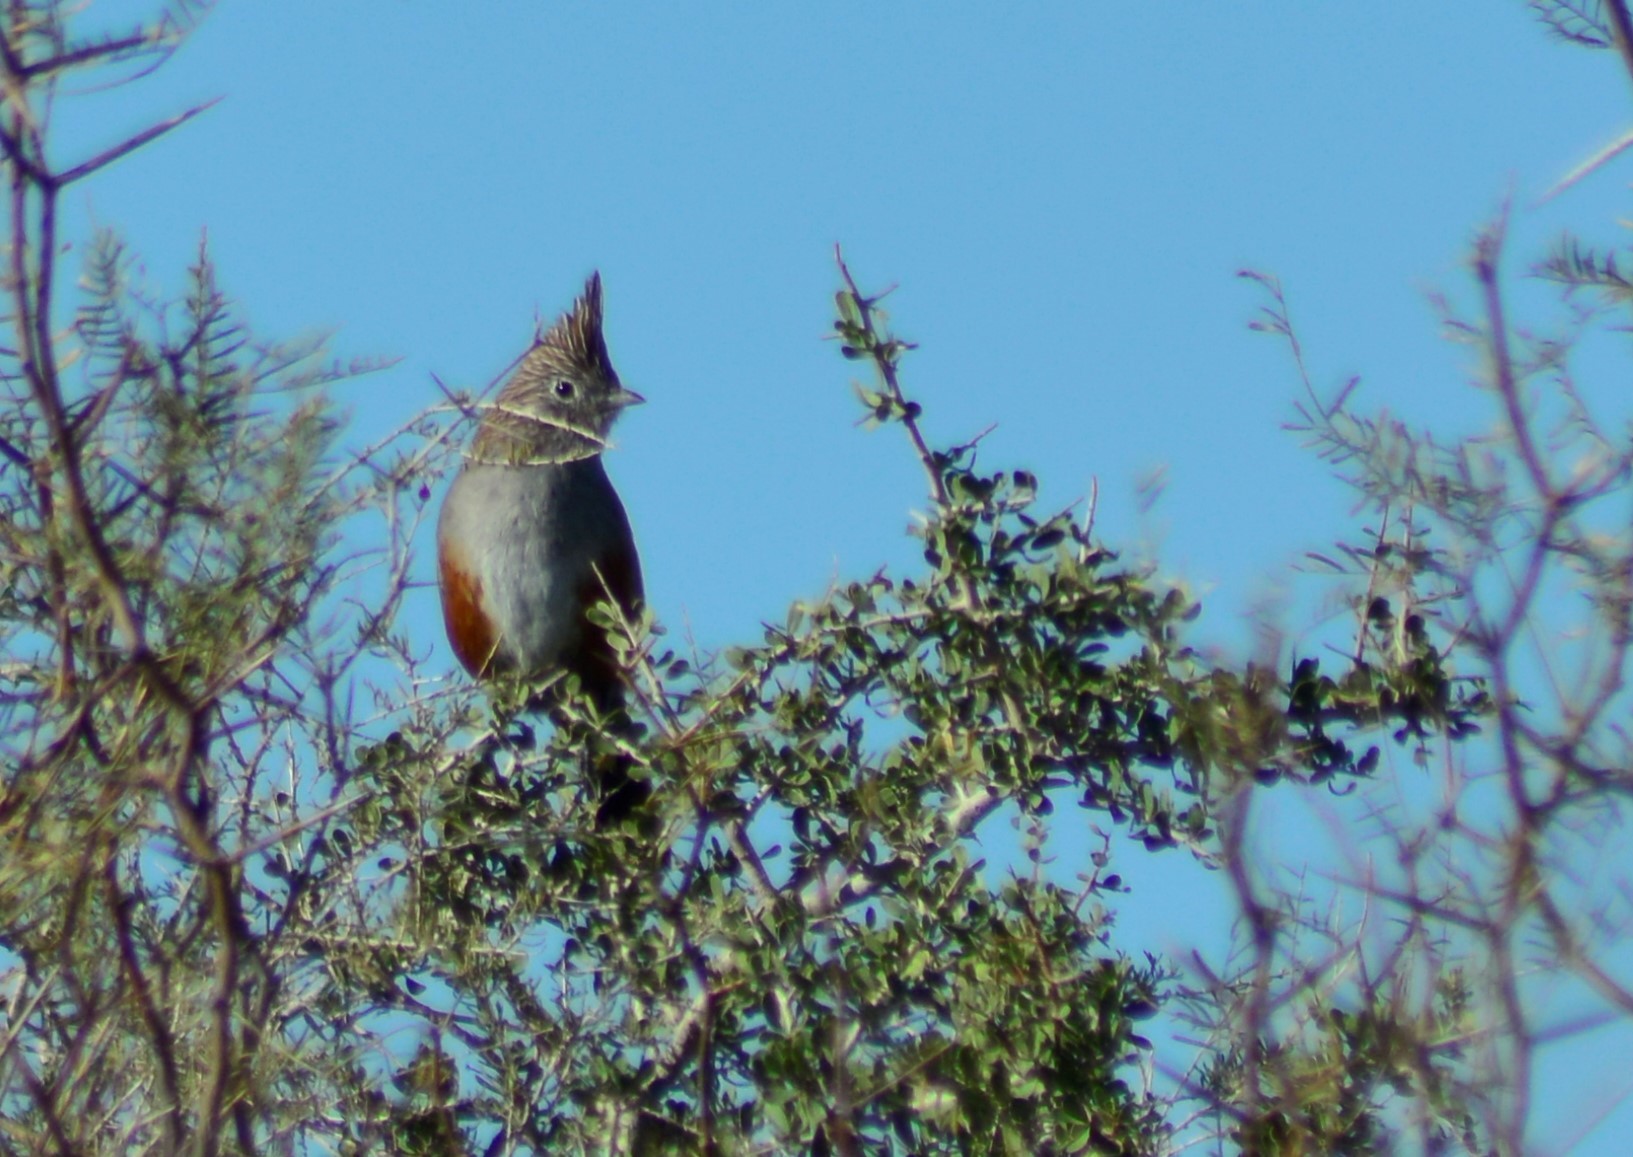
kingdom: Animalia
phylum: Chordata
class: Aves
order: Passeriformes
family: Rhinocryptidae
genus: Rhinocrypta
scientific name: Rhinocrypta lanceolata
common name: Crested gallito
